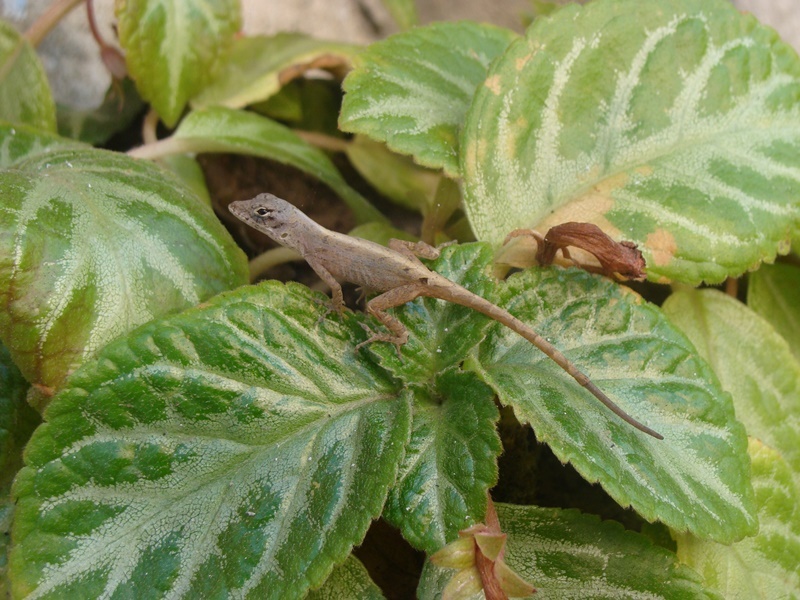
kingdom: Animalia
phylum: Chordata
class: Squamata
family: Dactyloidae
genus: Anolis
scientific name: Anolis unilobatus
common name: Blue-spotted fan anole
